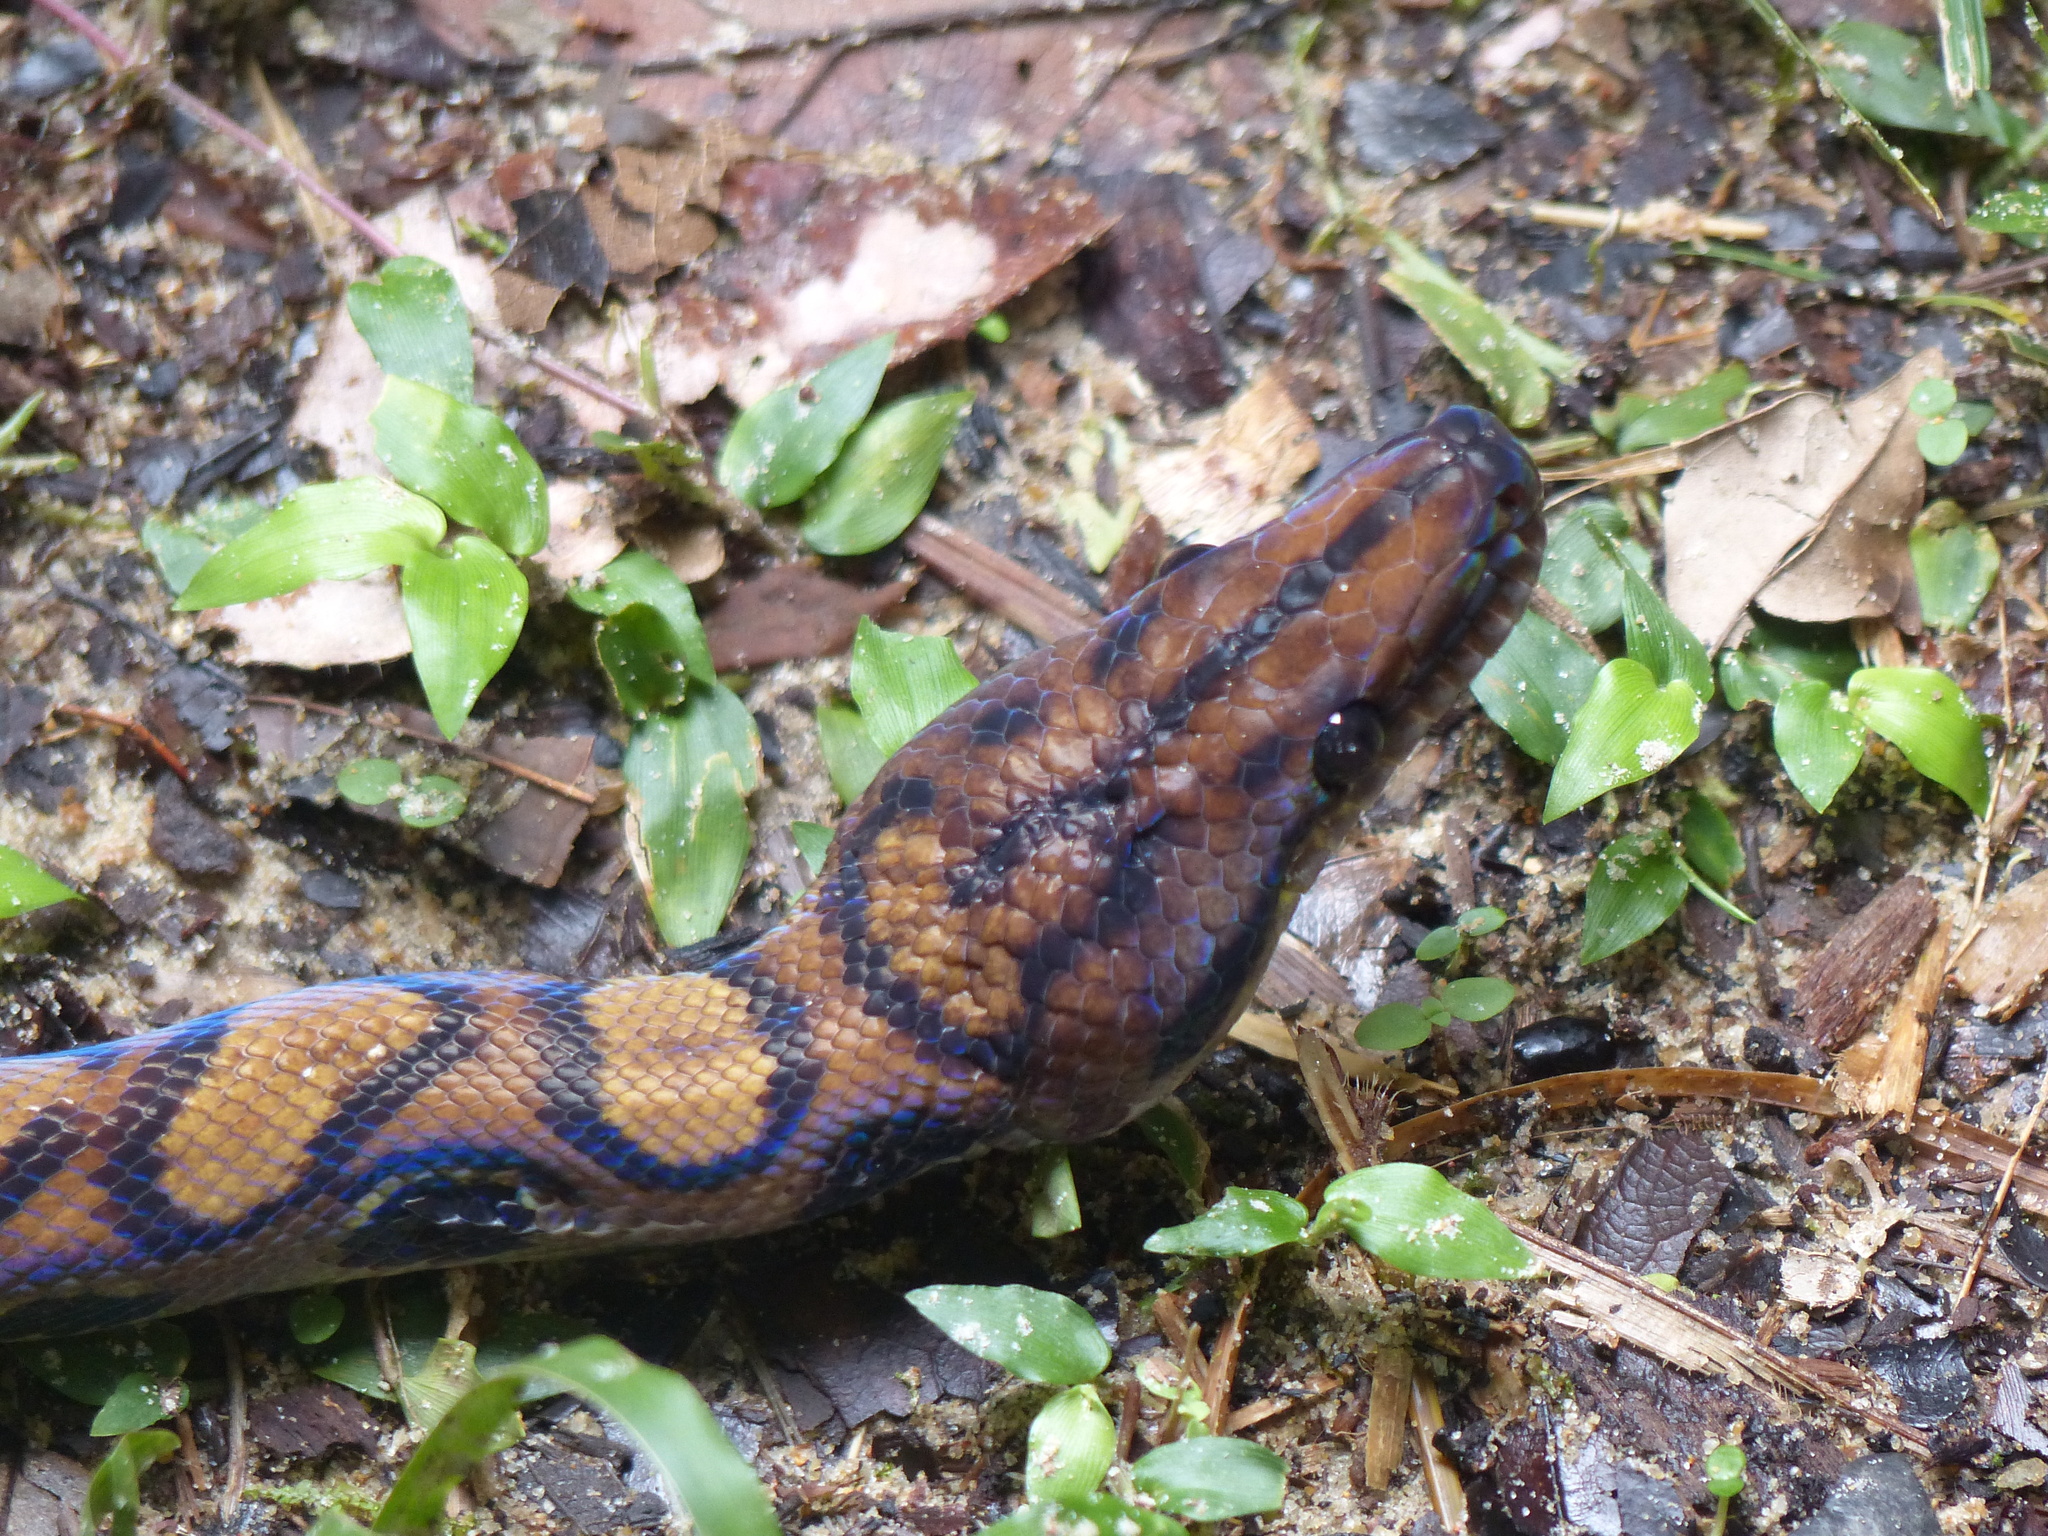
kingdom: Animalia
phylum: Chordata
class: Squamata
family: Boidae
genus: Epicrates
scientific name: Epicrates cenchria
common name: Rainbow boa
